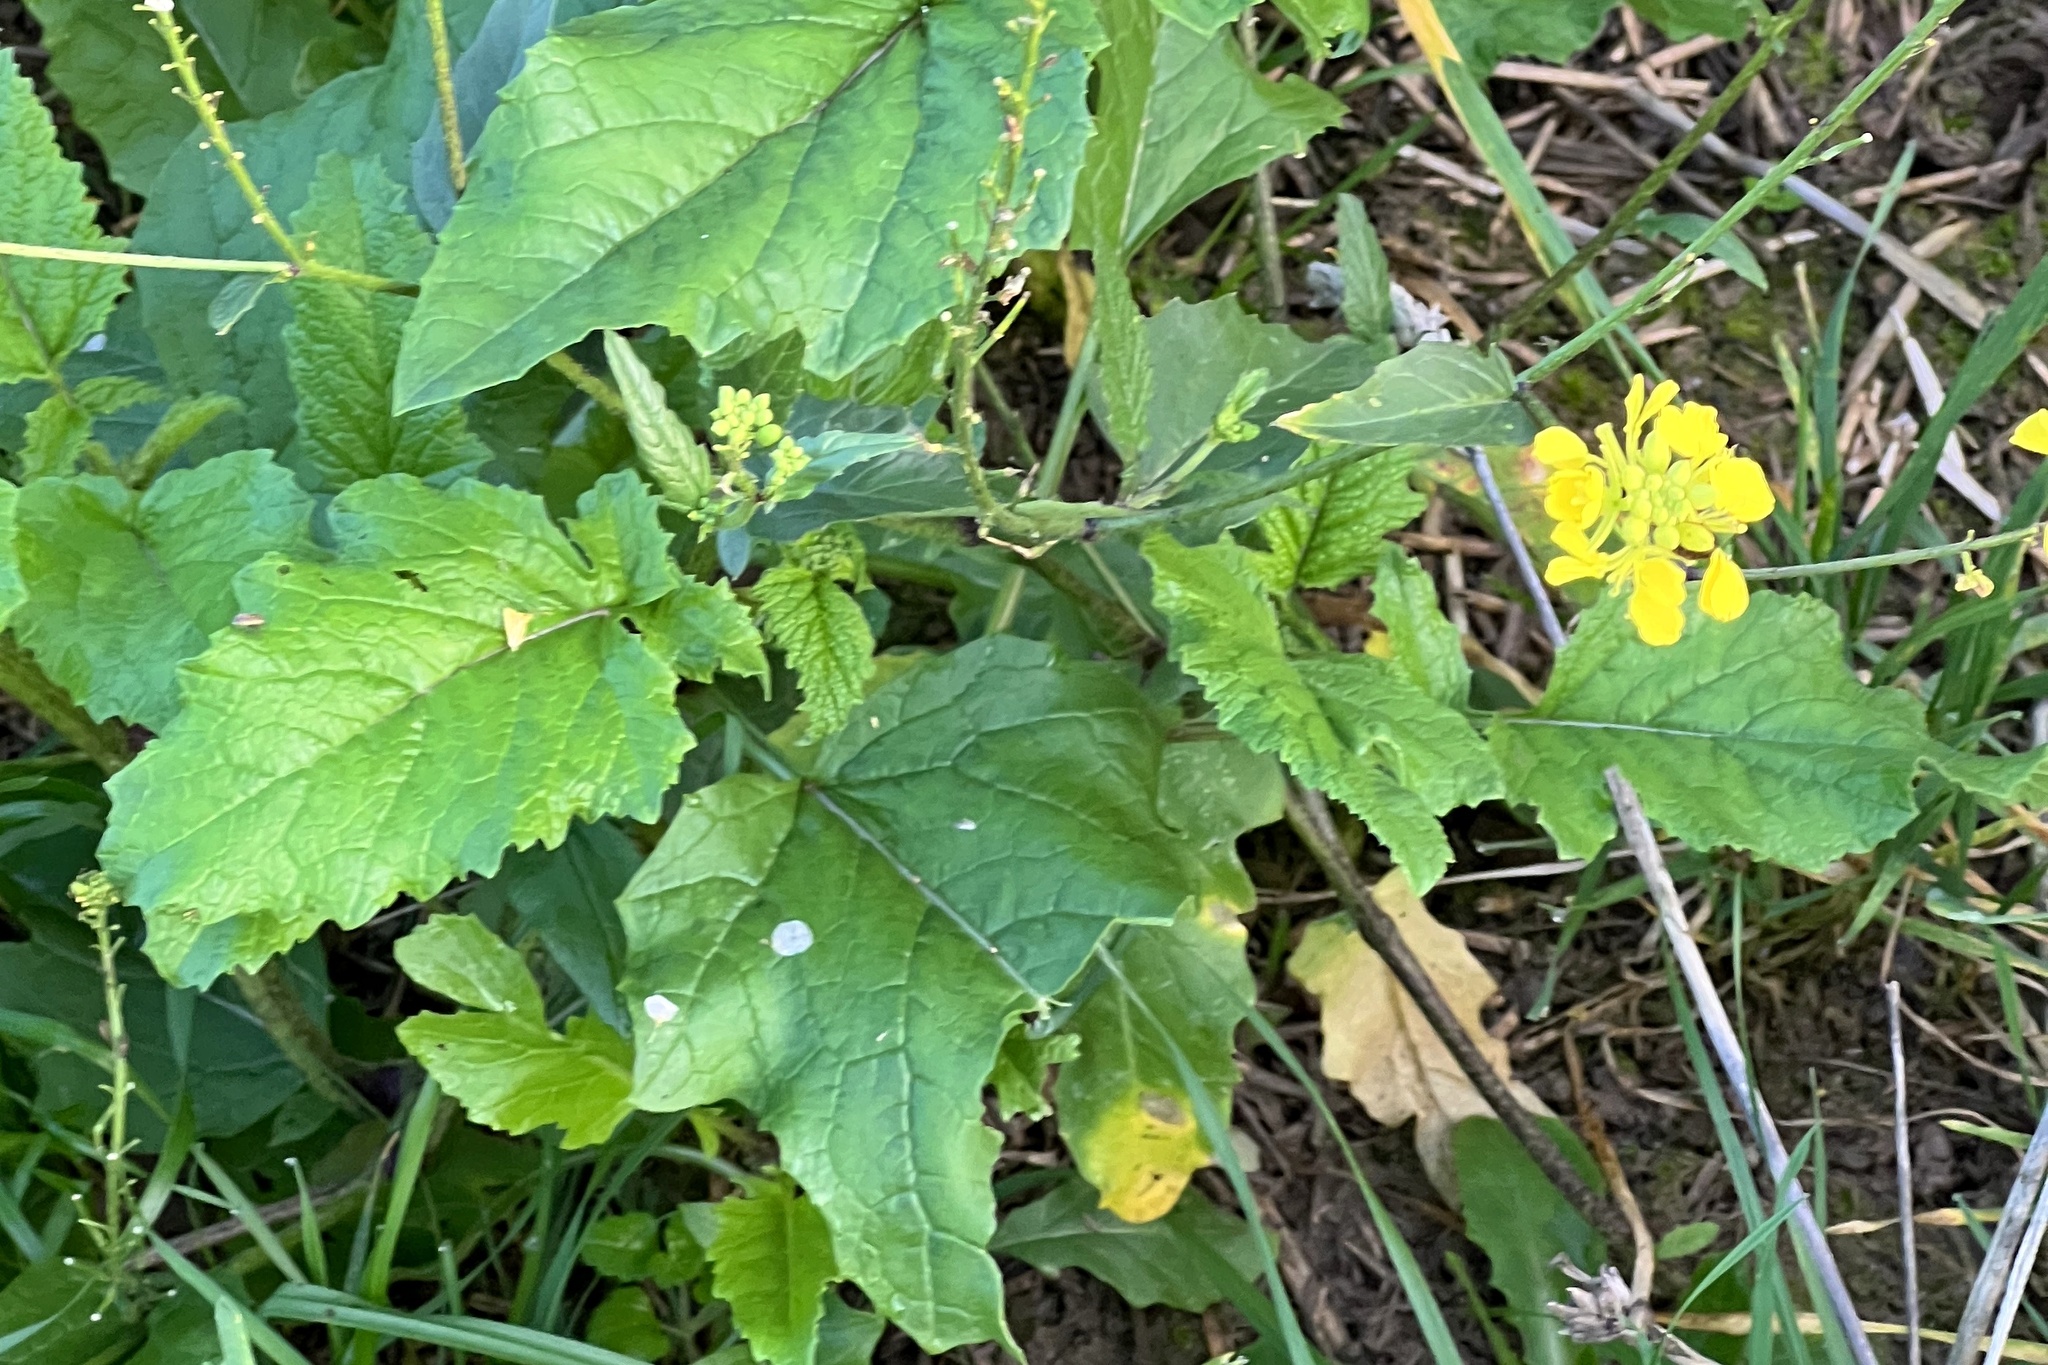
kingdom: Plantae
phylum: Tracheophyta
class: Magnoliopsida
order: Brassicales
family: Brassicaceae
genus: Sinapis
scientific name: Sinapis arvensis
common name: Charlock
